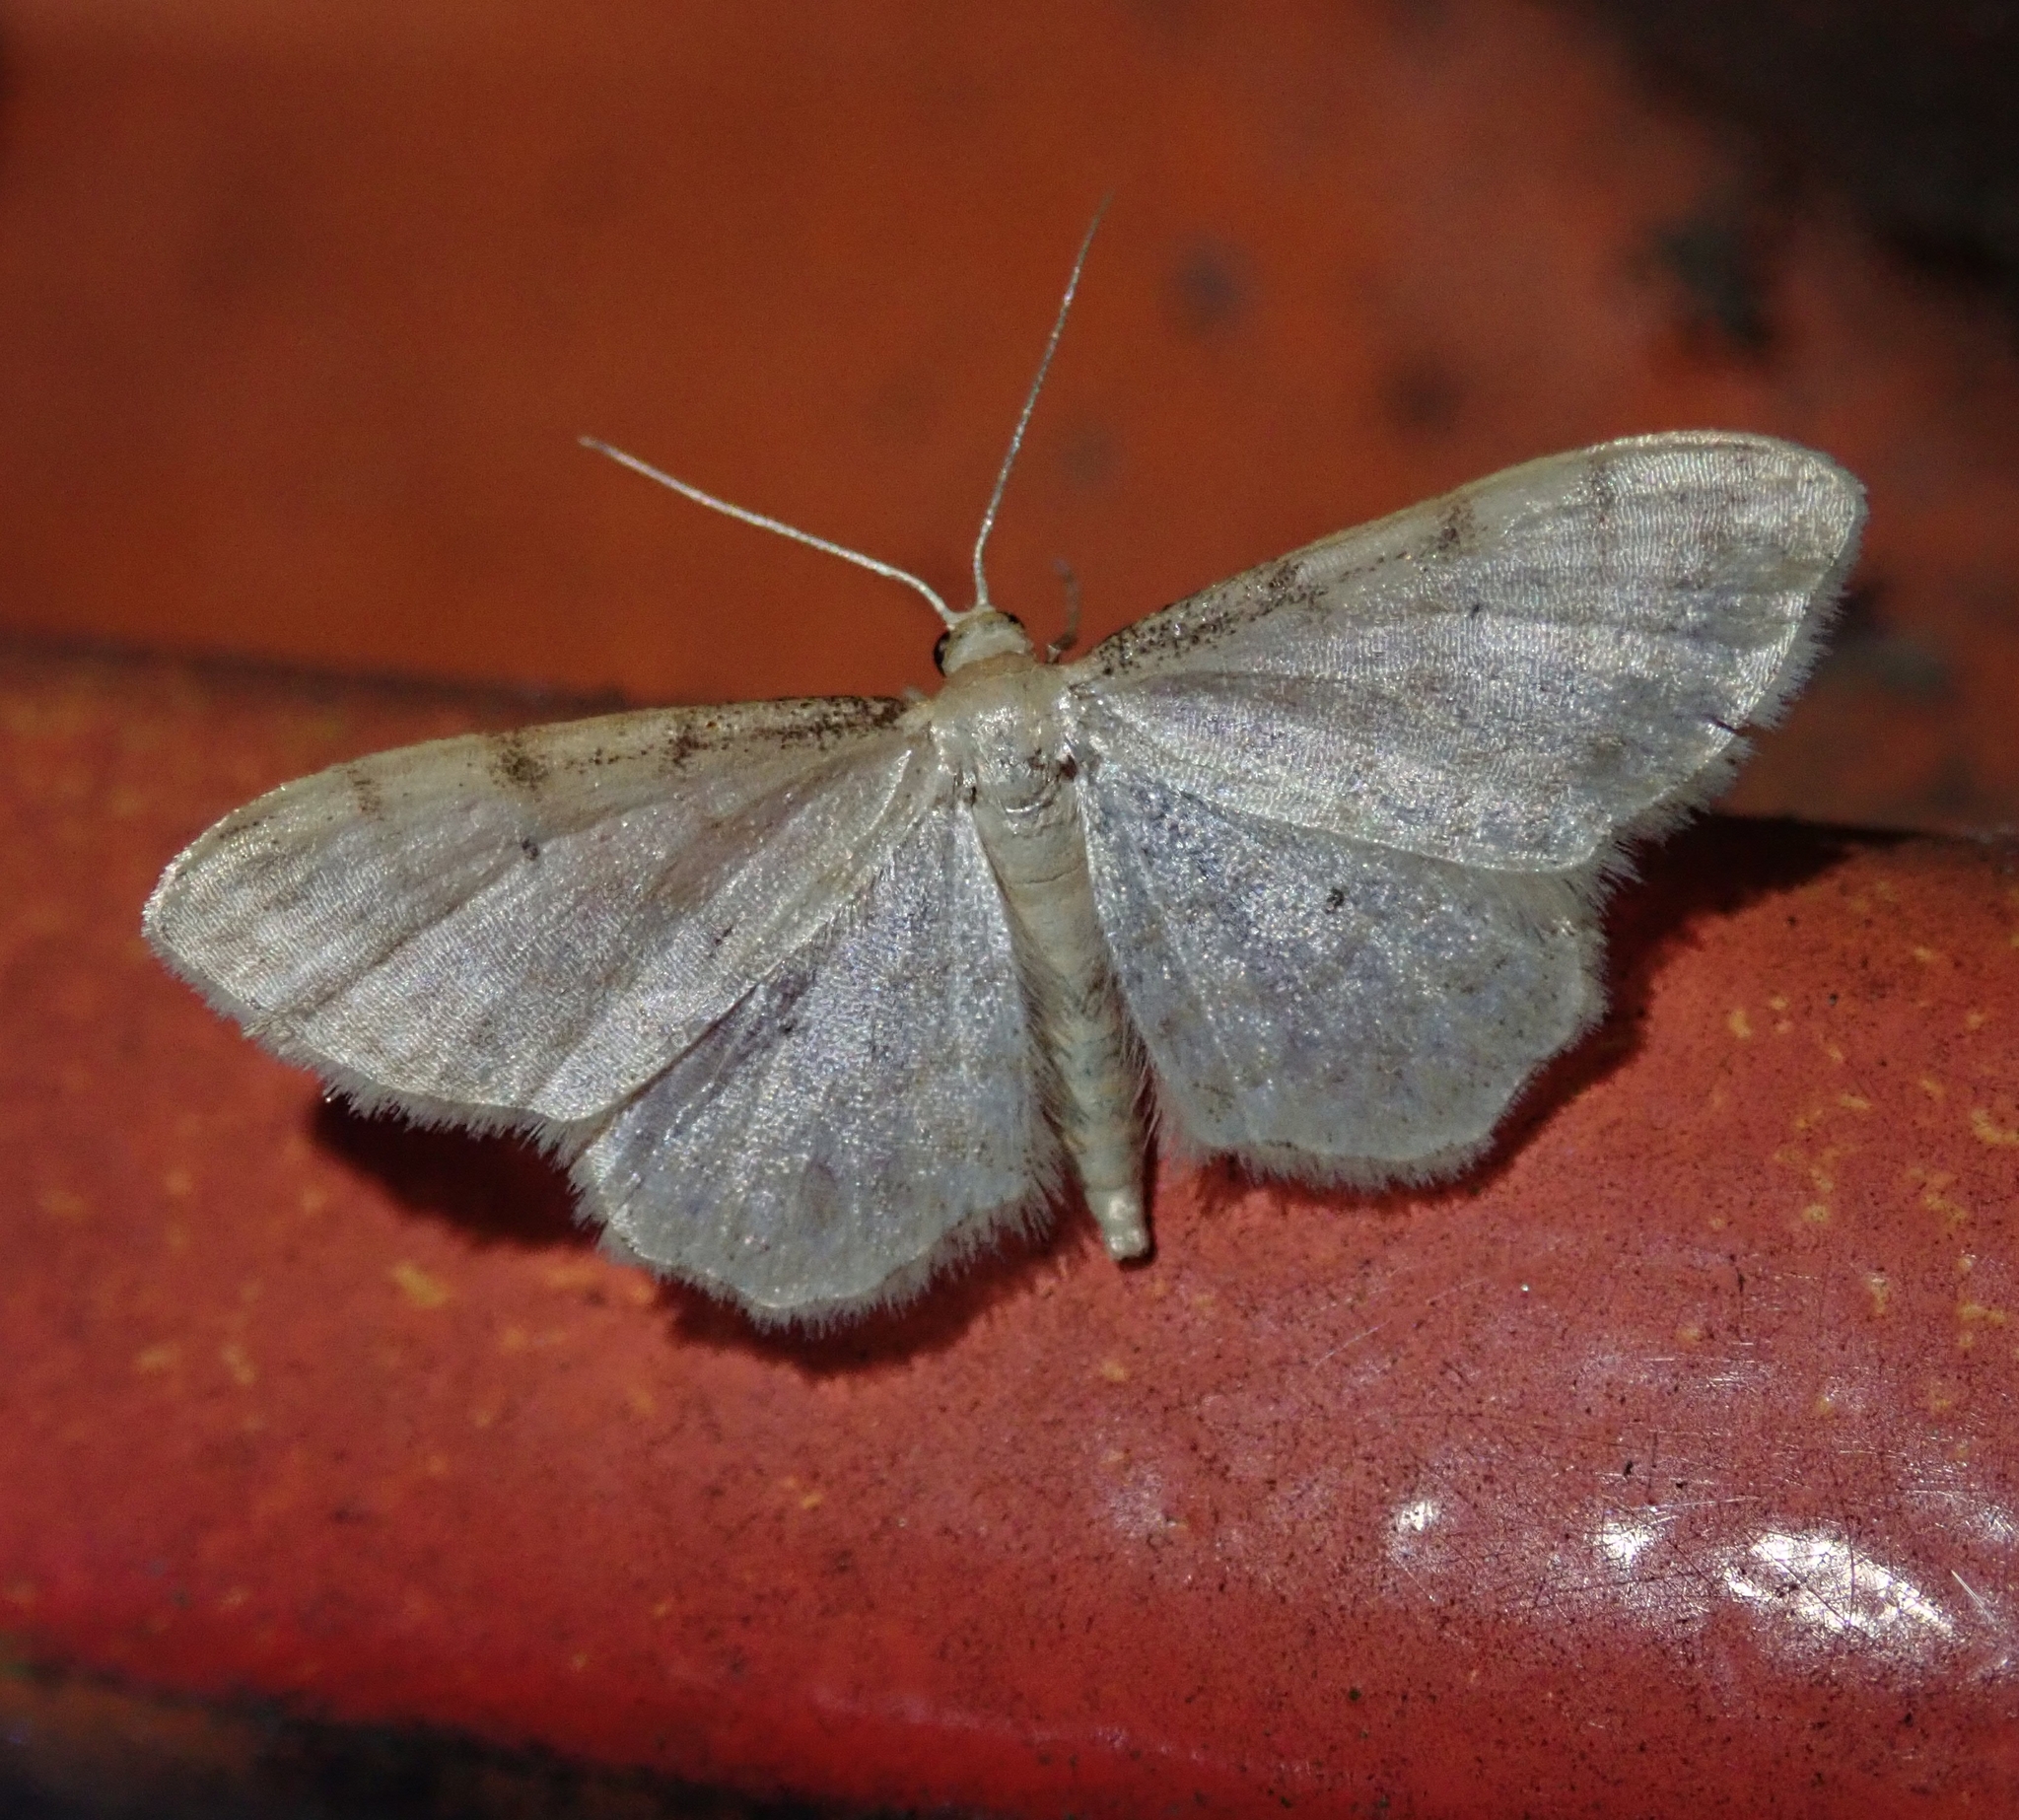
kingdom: Animalia
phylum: Arthropoda
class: Insecta
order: Lepidoptera
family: Geometridae
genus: Idaea
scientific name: Idaea fuscovenosa
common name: Dwarf cream wave
